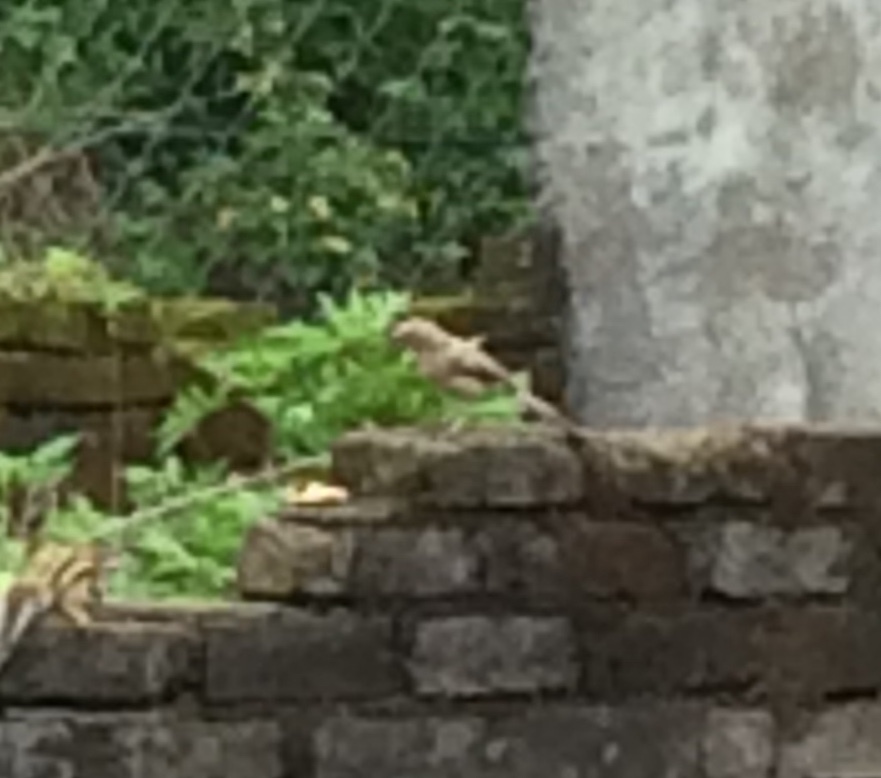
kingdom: Animalia
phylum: Chordata
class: Aves
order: Passeriformes
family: Leiothrichidae
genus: Turdoides
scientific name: Turdoides malcolmi
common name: Large grey babbler
